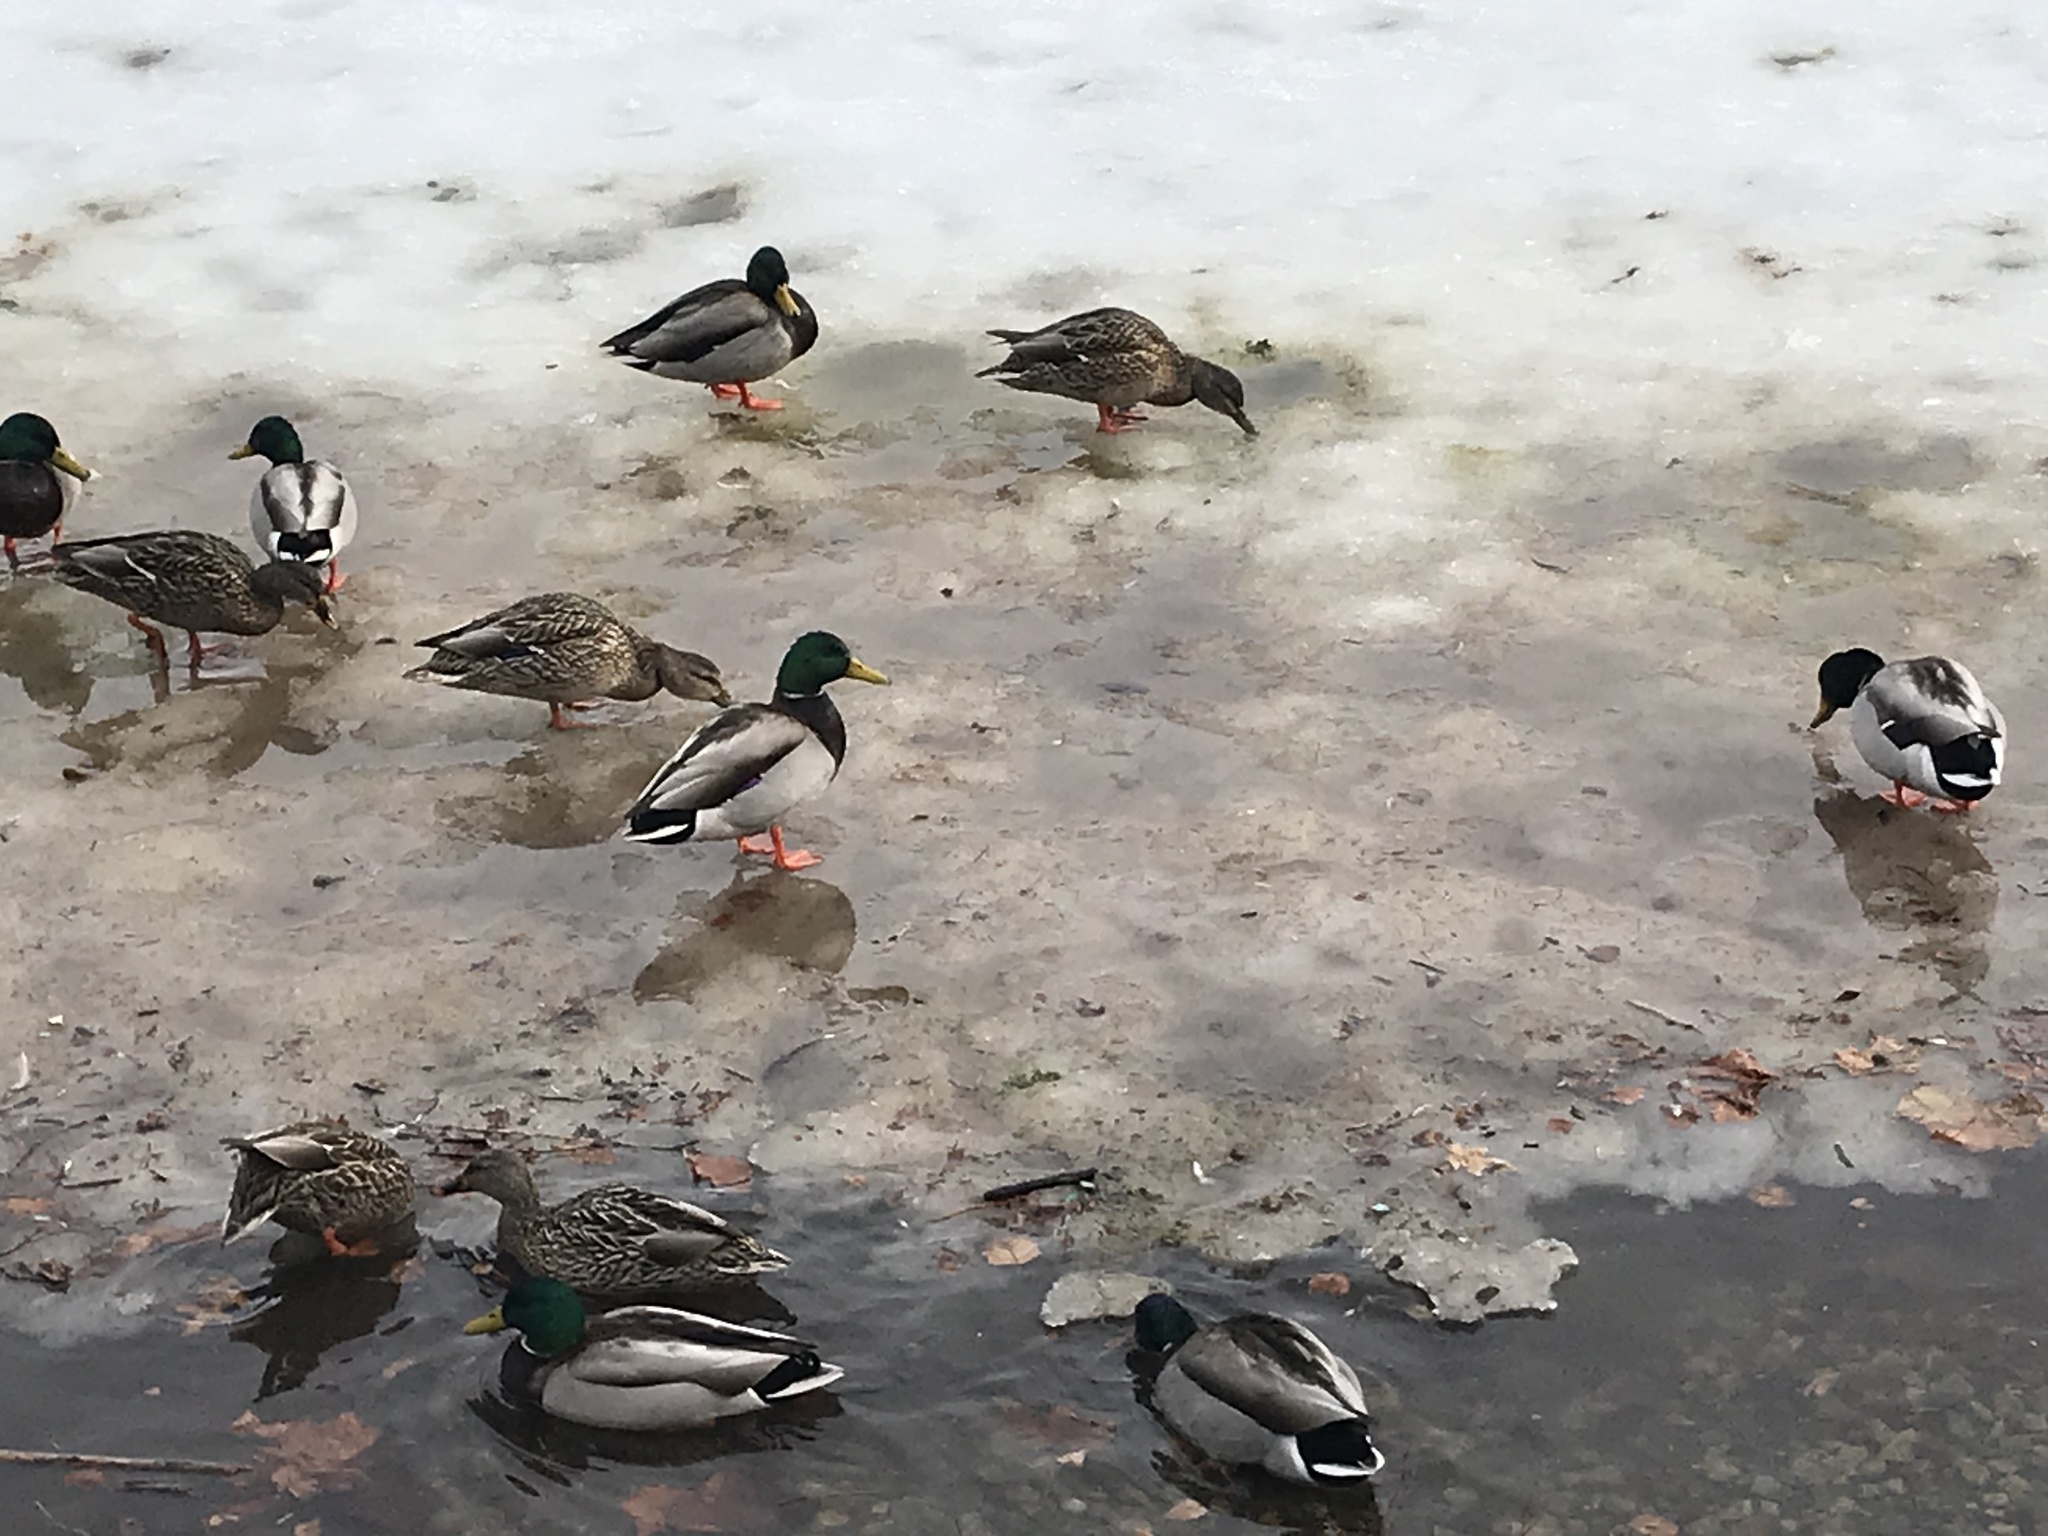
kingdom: Animalia
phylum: Chordata
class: Aves
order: Anseriformes
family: Anatidae
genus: Anas
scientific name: Anas platyrhynchos
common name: Mallard
